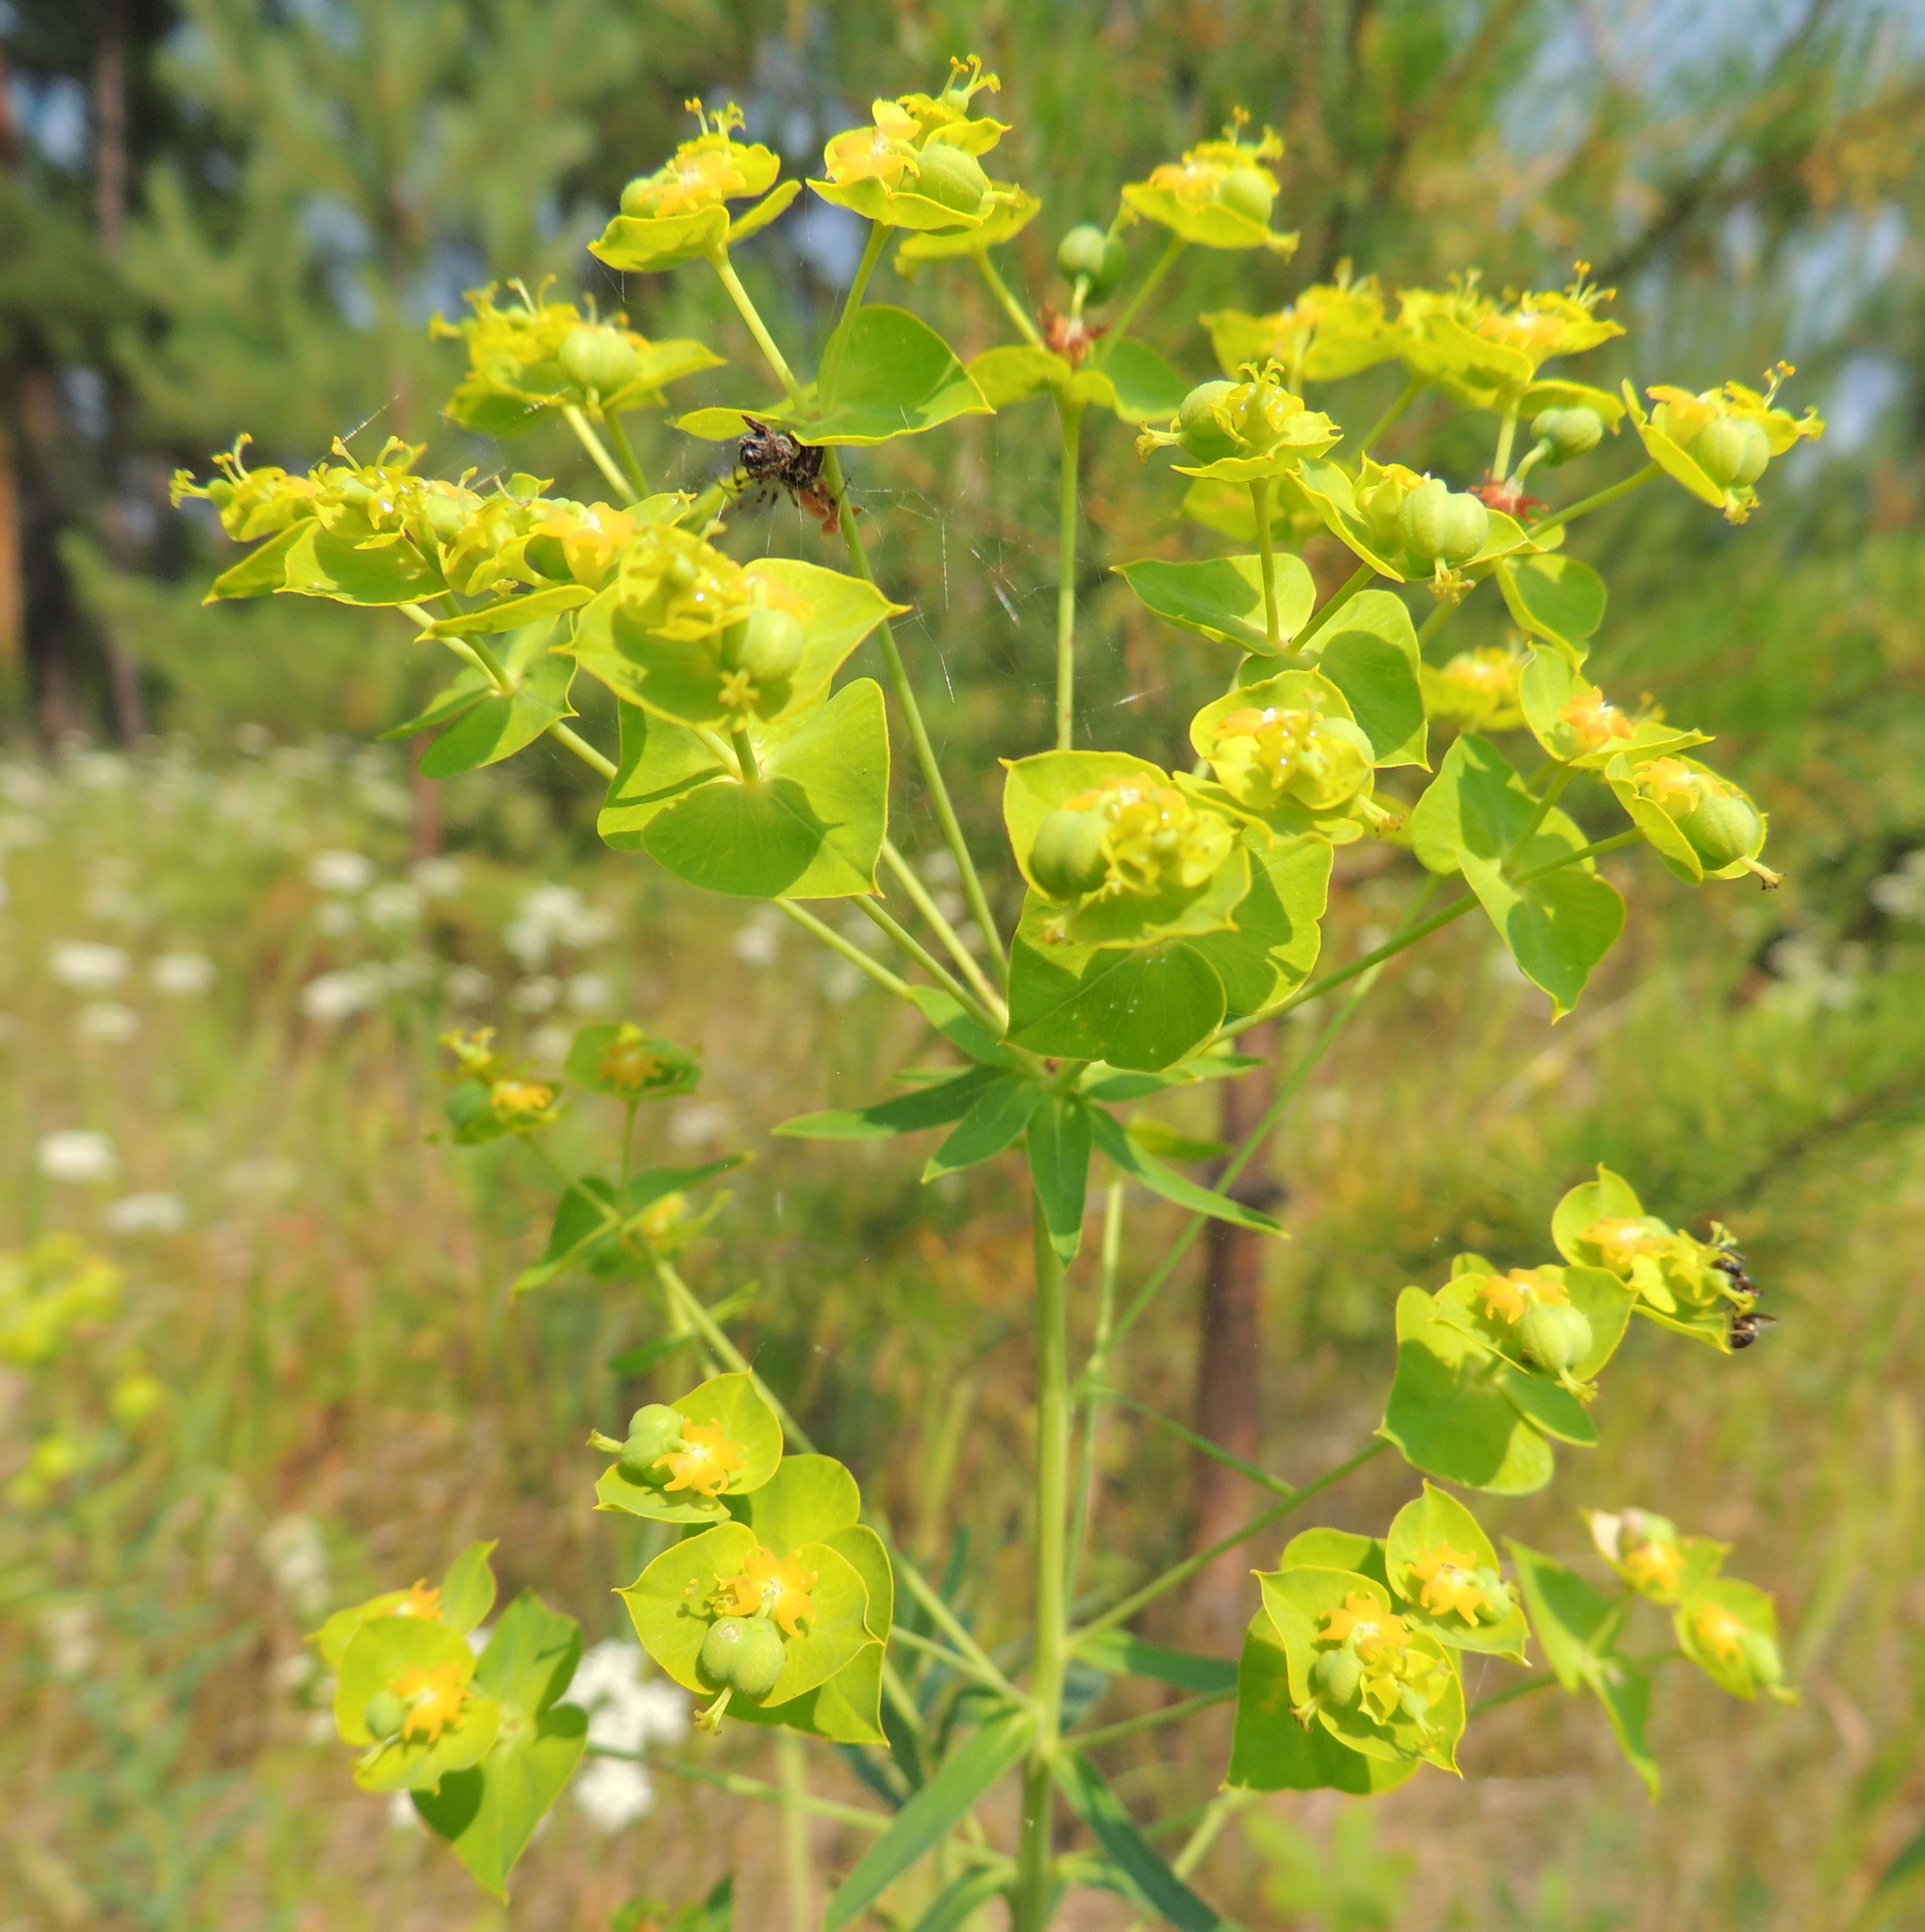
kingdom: Plantae
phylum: Tracheophyta
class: Magnoliopsida
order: Malpighiales
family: Euphorbiaceae
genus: Euphorbia
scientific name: Euphorbia virgata
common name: Leafy spurge
